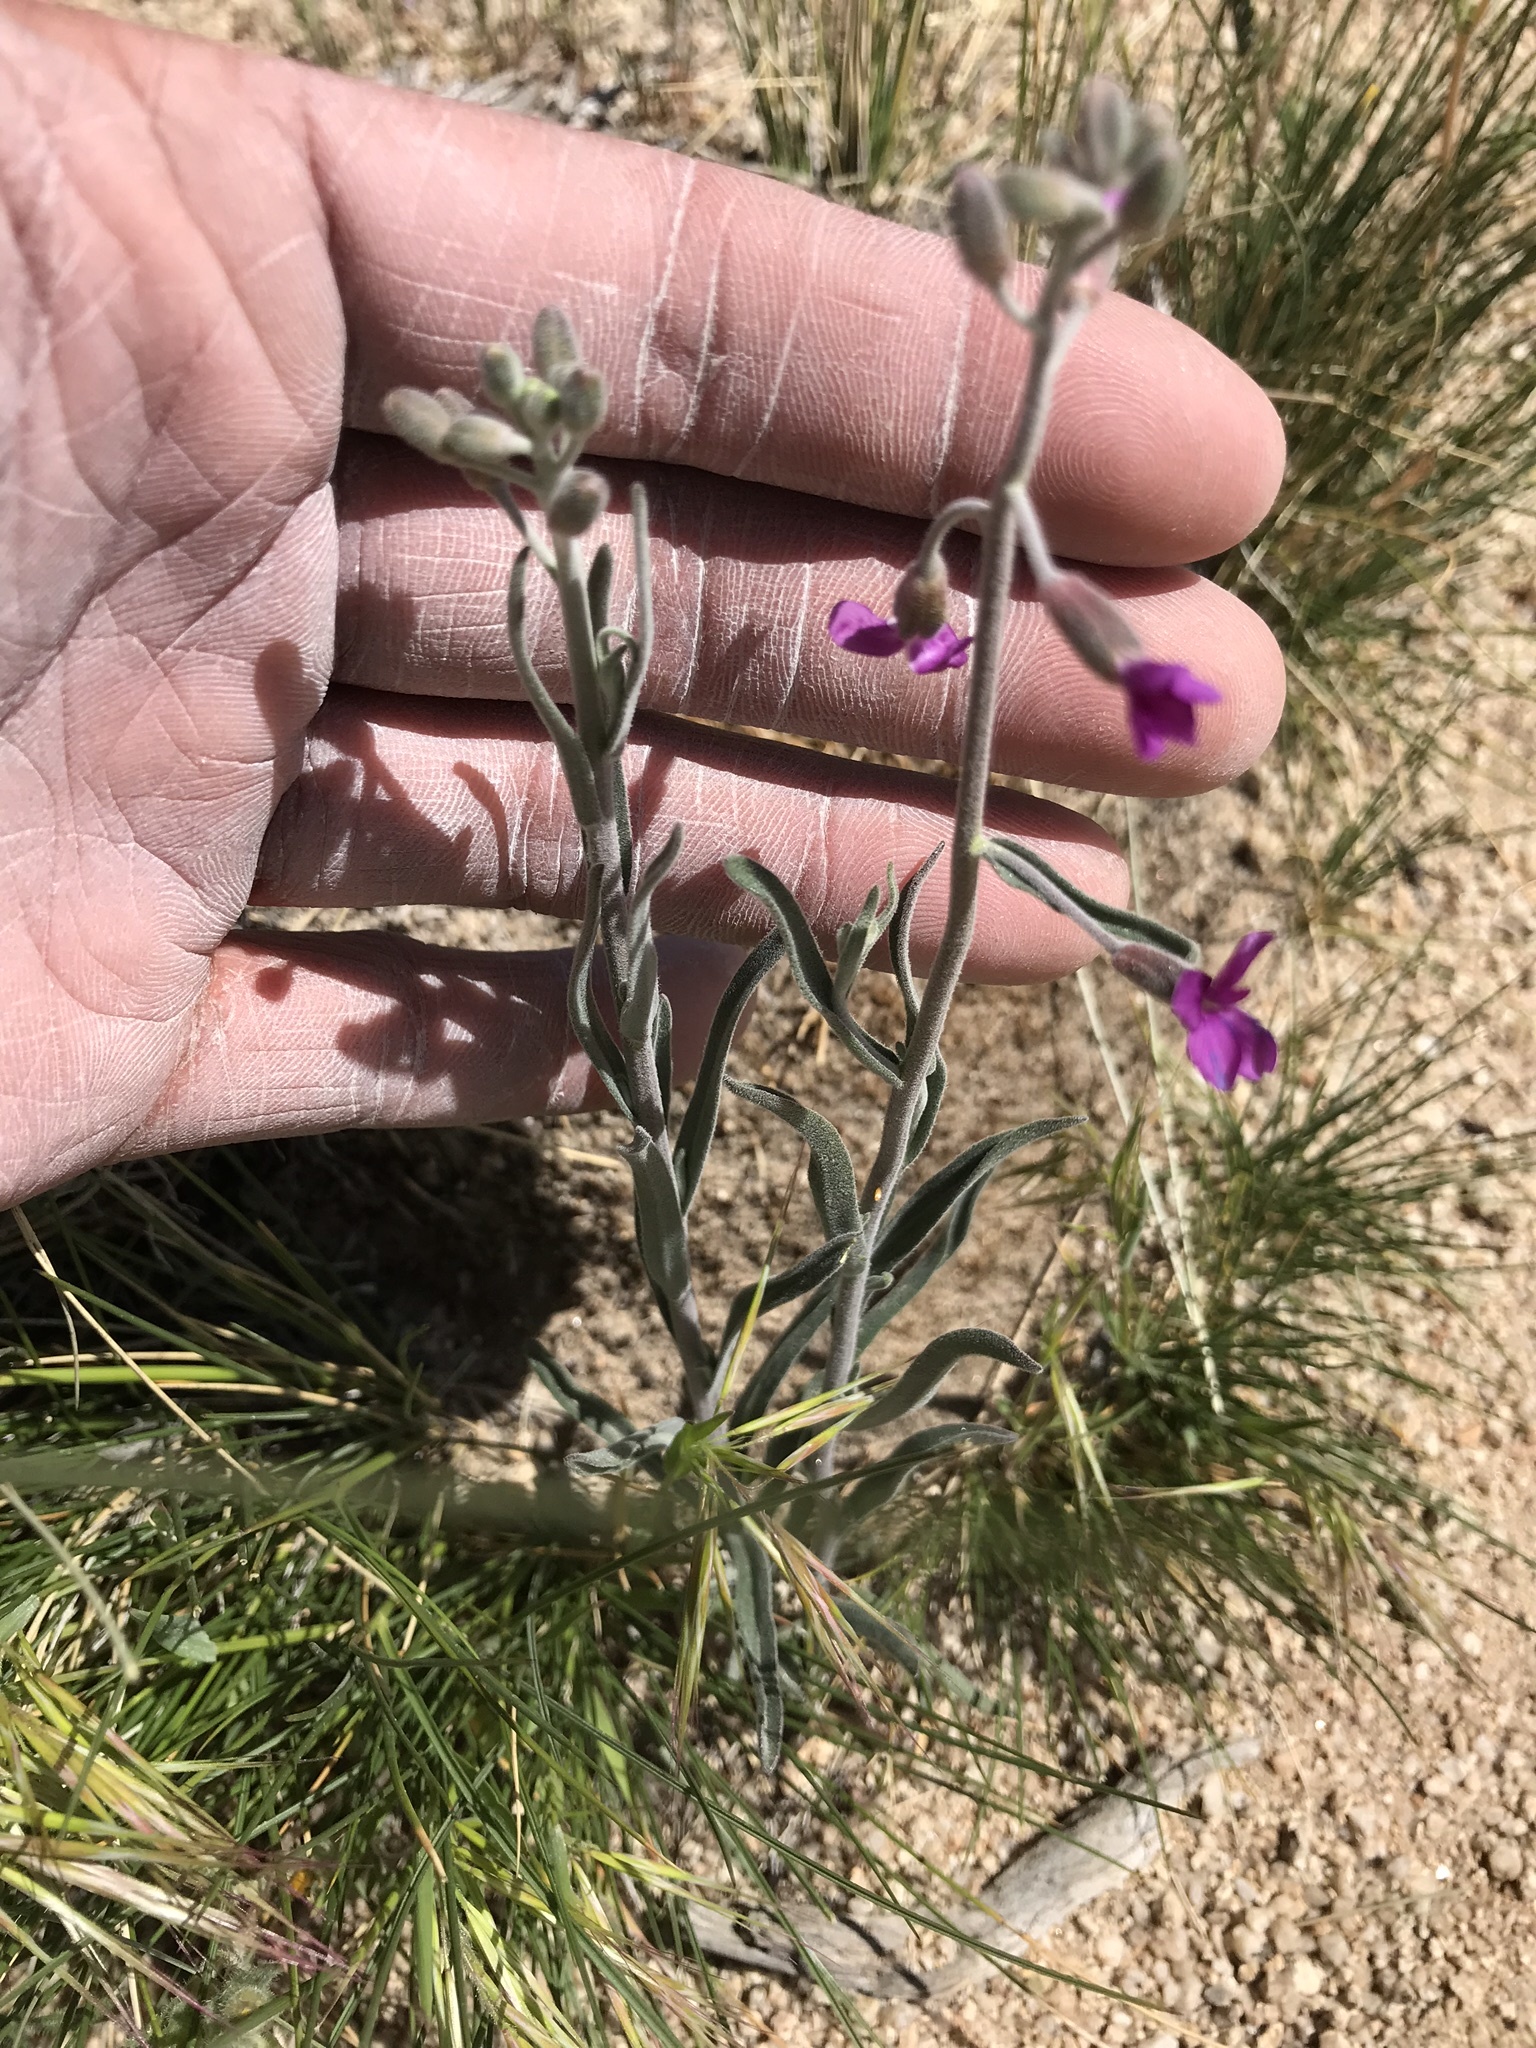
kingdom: Plantae
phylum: Tracheophyta
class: Magnoliopsida
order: Brassicales
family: Brassicaceae
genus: Boechera
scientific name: Boechera pulchra
